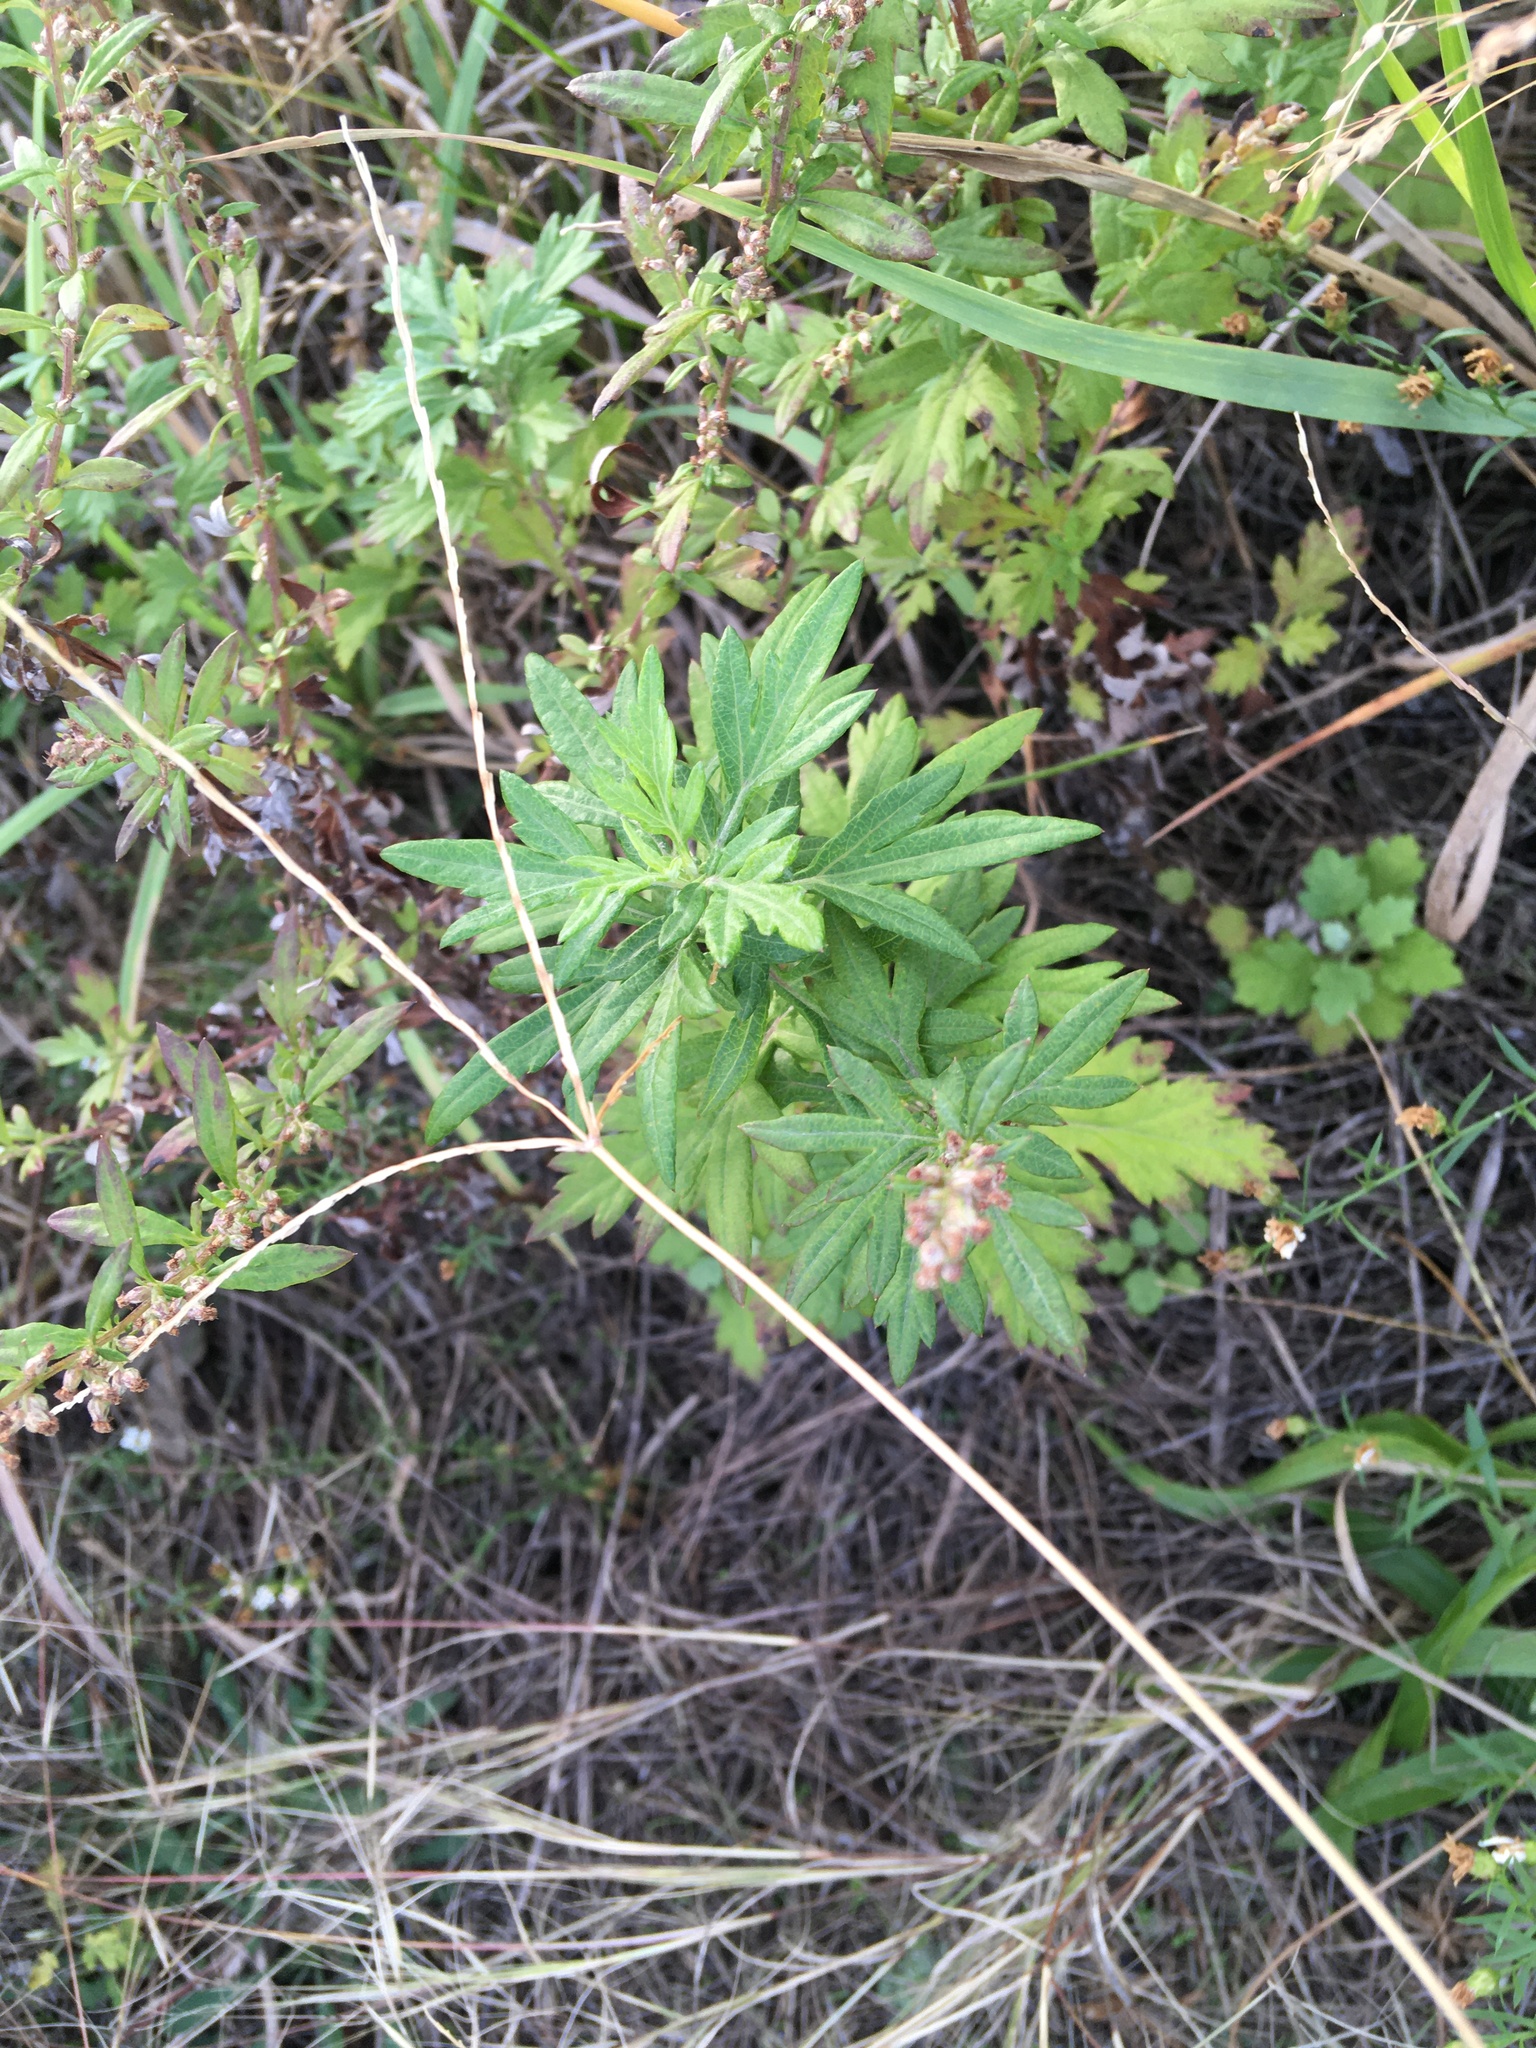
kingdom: Plantae
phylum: Tracheophyta
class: Magnoliopsida
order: Asterales
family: Asteraceae
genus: Artemisia
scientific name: Artemisia vulgaris
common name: Mugwort
